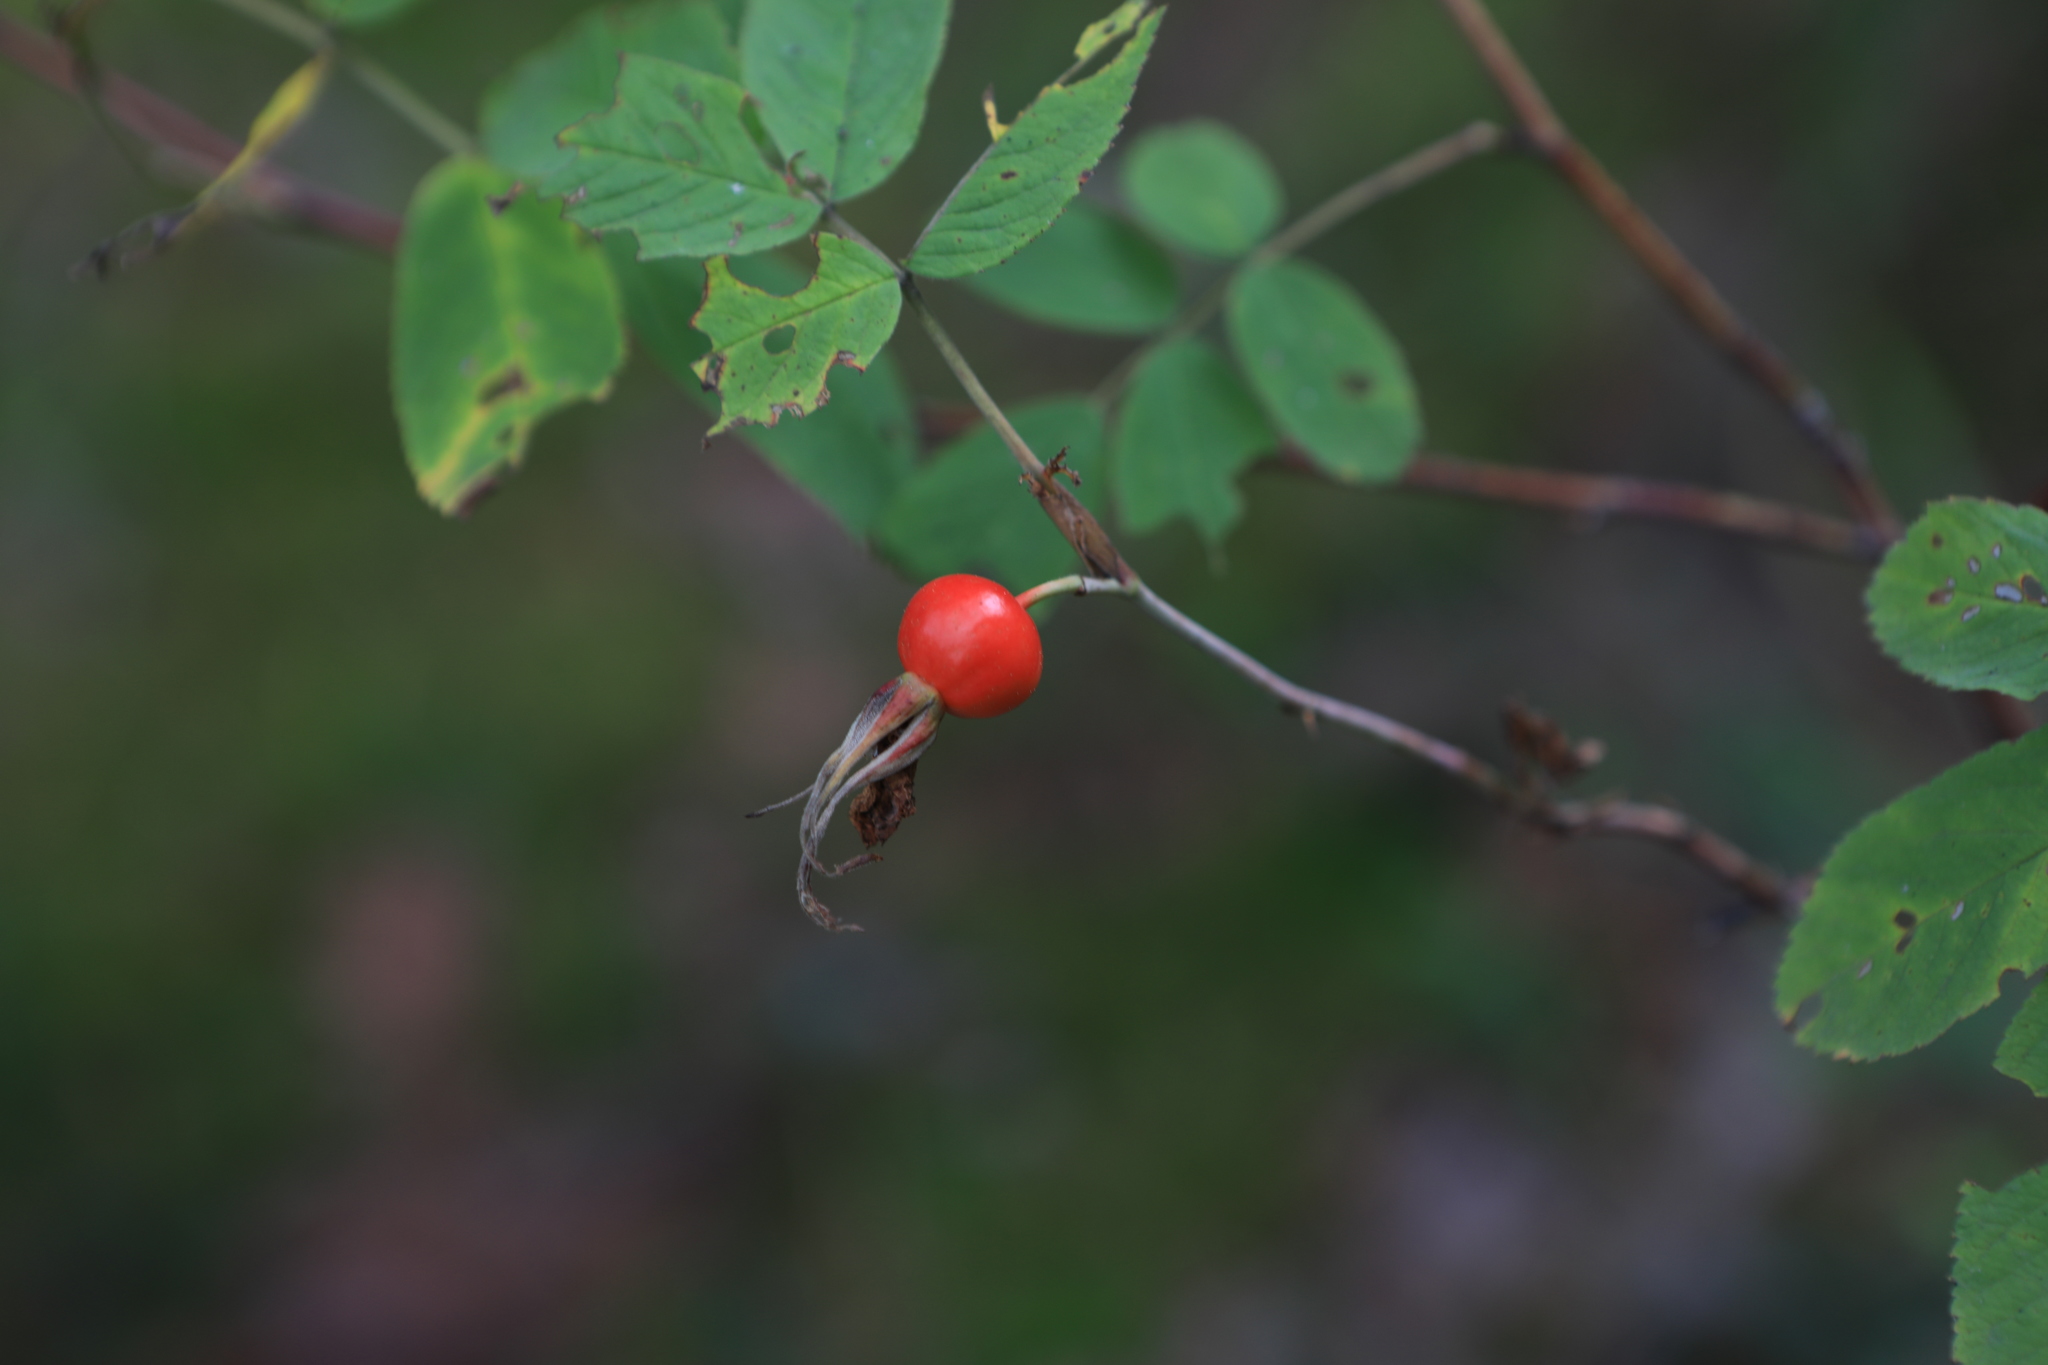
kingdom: Plantae
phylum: Tracheophyta
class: Magnoliopsida
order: Rosales
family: Rosaceae
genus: Rosa
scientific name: Rosa majalis
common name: Cinnamon rose
